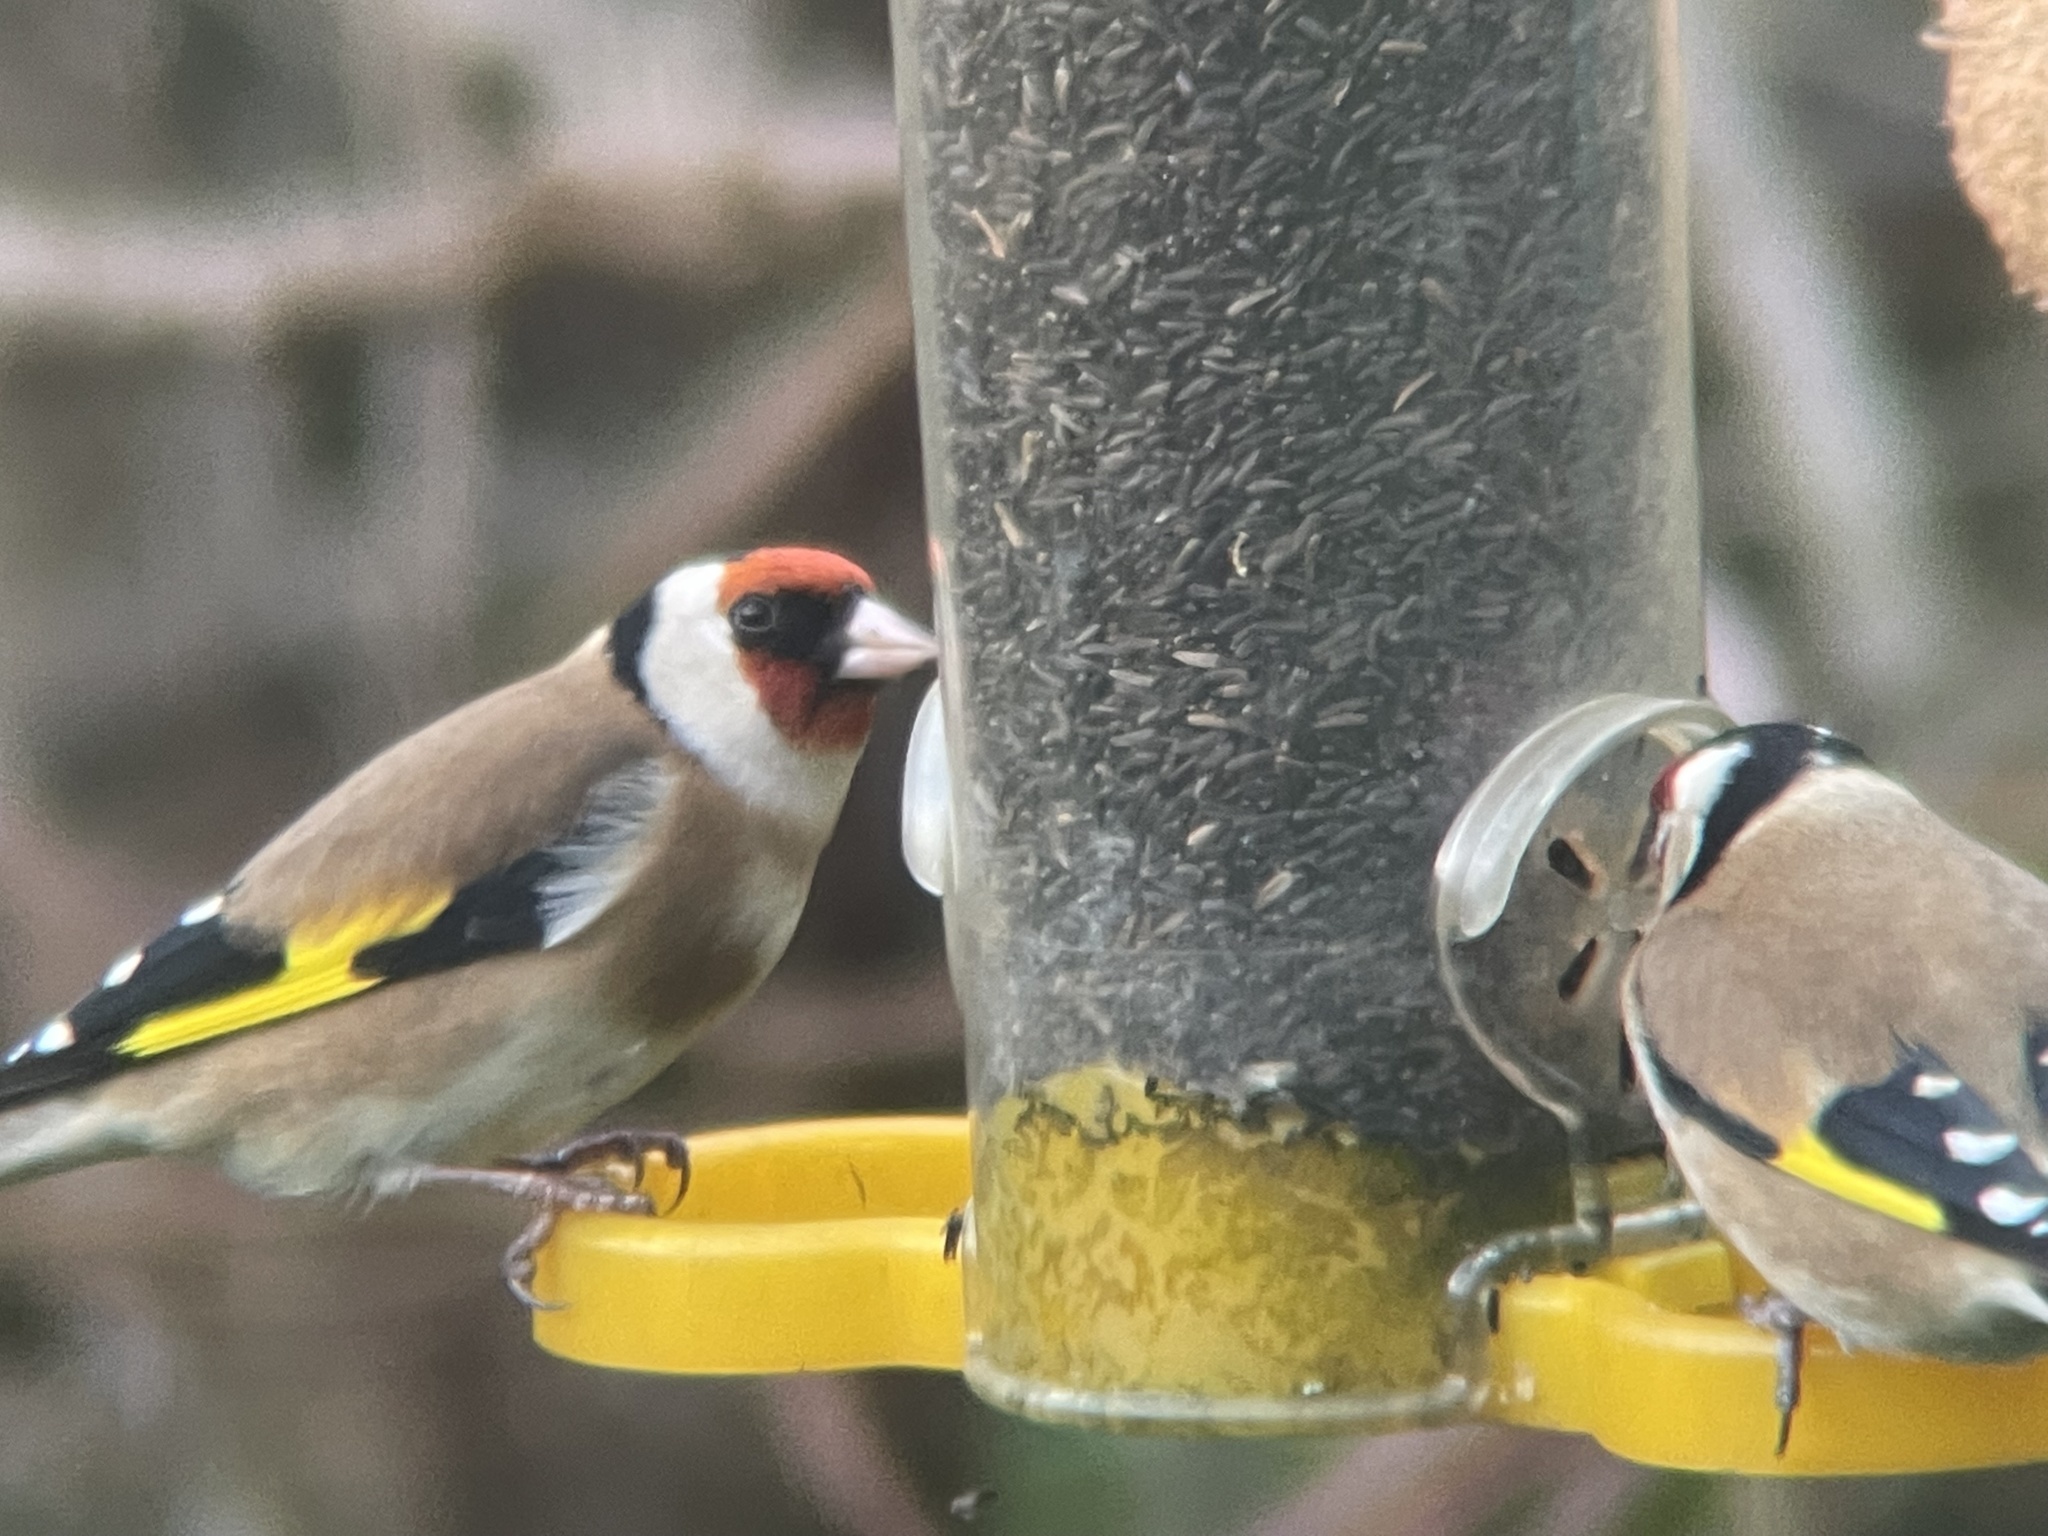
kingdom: Animalia
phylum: Chordata
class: Aves
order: Passeriformes
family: Fringillidae
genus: Carduelis
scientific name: Carduelis carduelis
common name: European goldfinch
